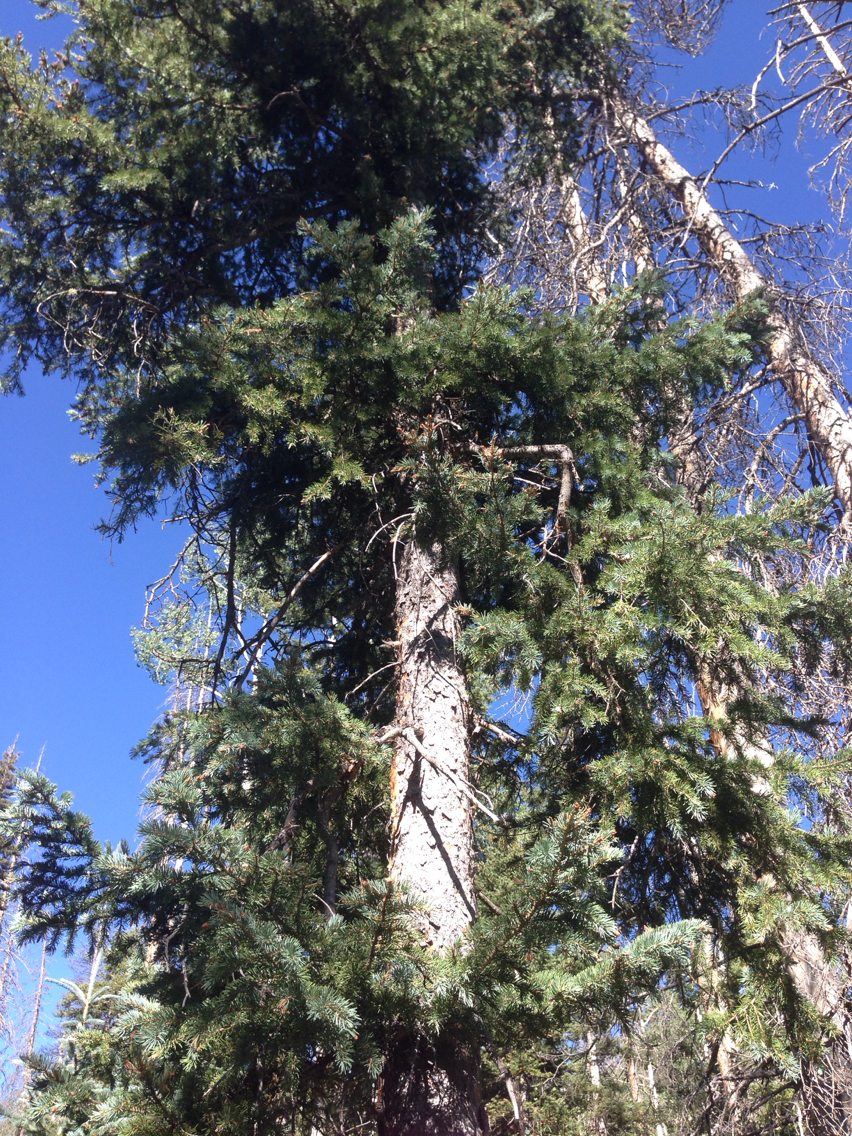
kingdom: Plantae
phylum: Tracheophyta
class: Pinopsida
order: Pinales
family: Pinaceae
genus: Pseudotsuga
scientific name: Pseudotsuga menziesii
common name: Douglas fir
